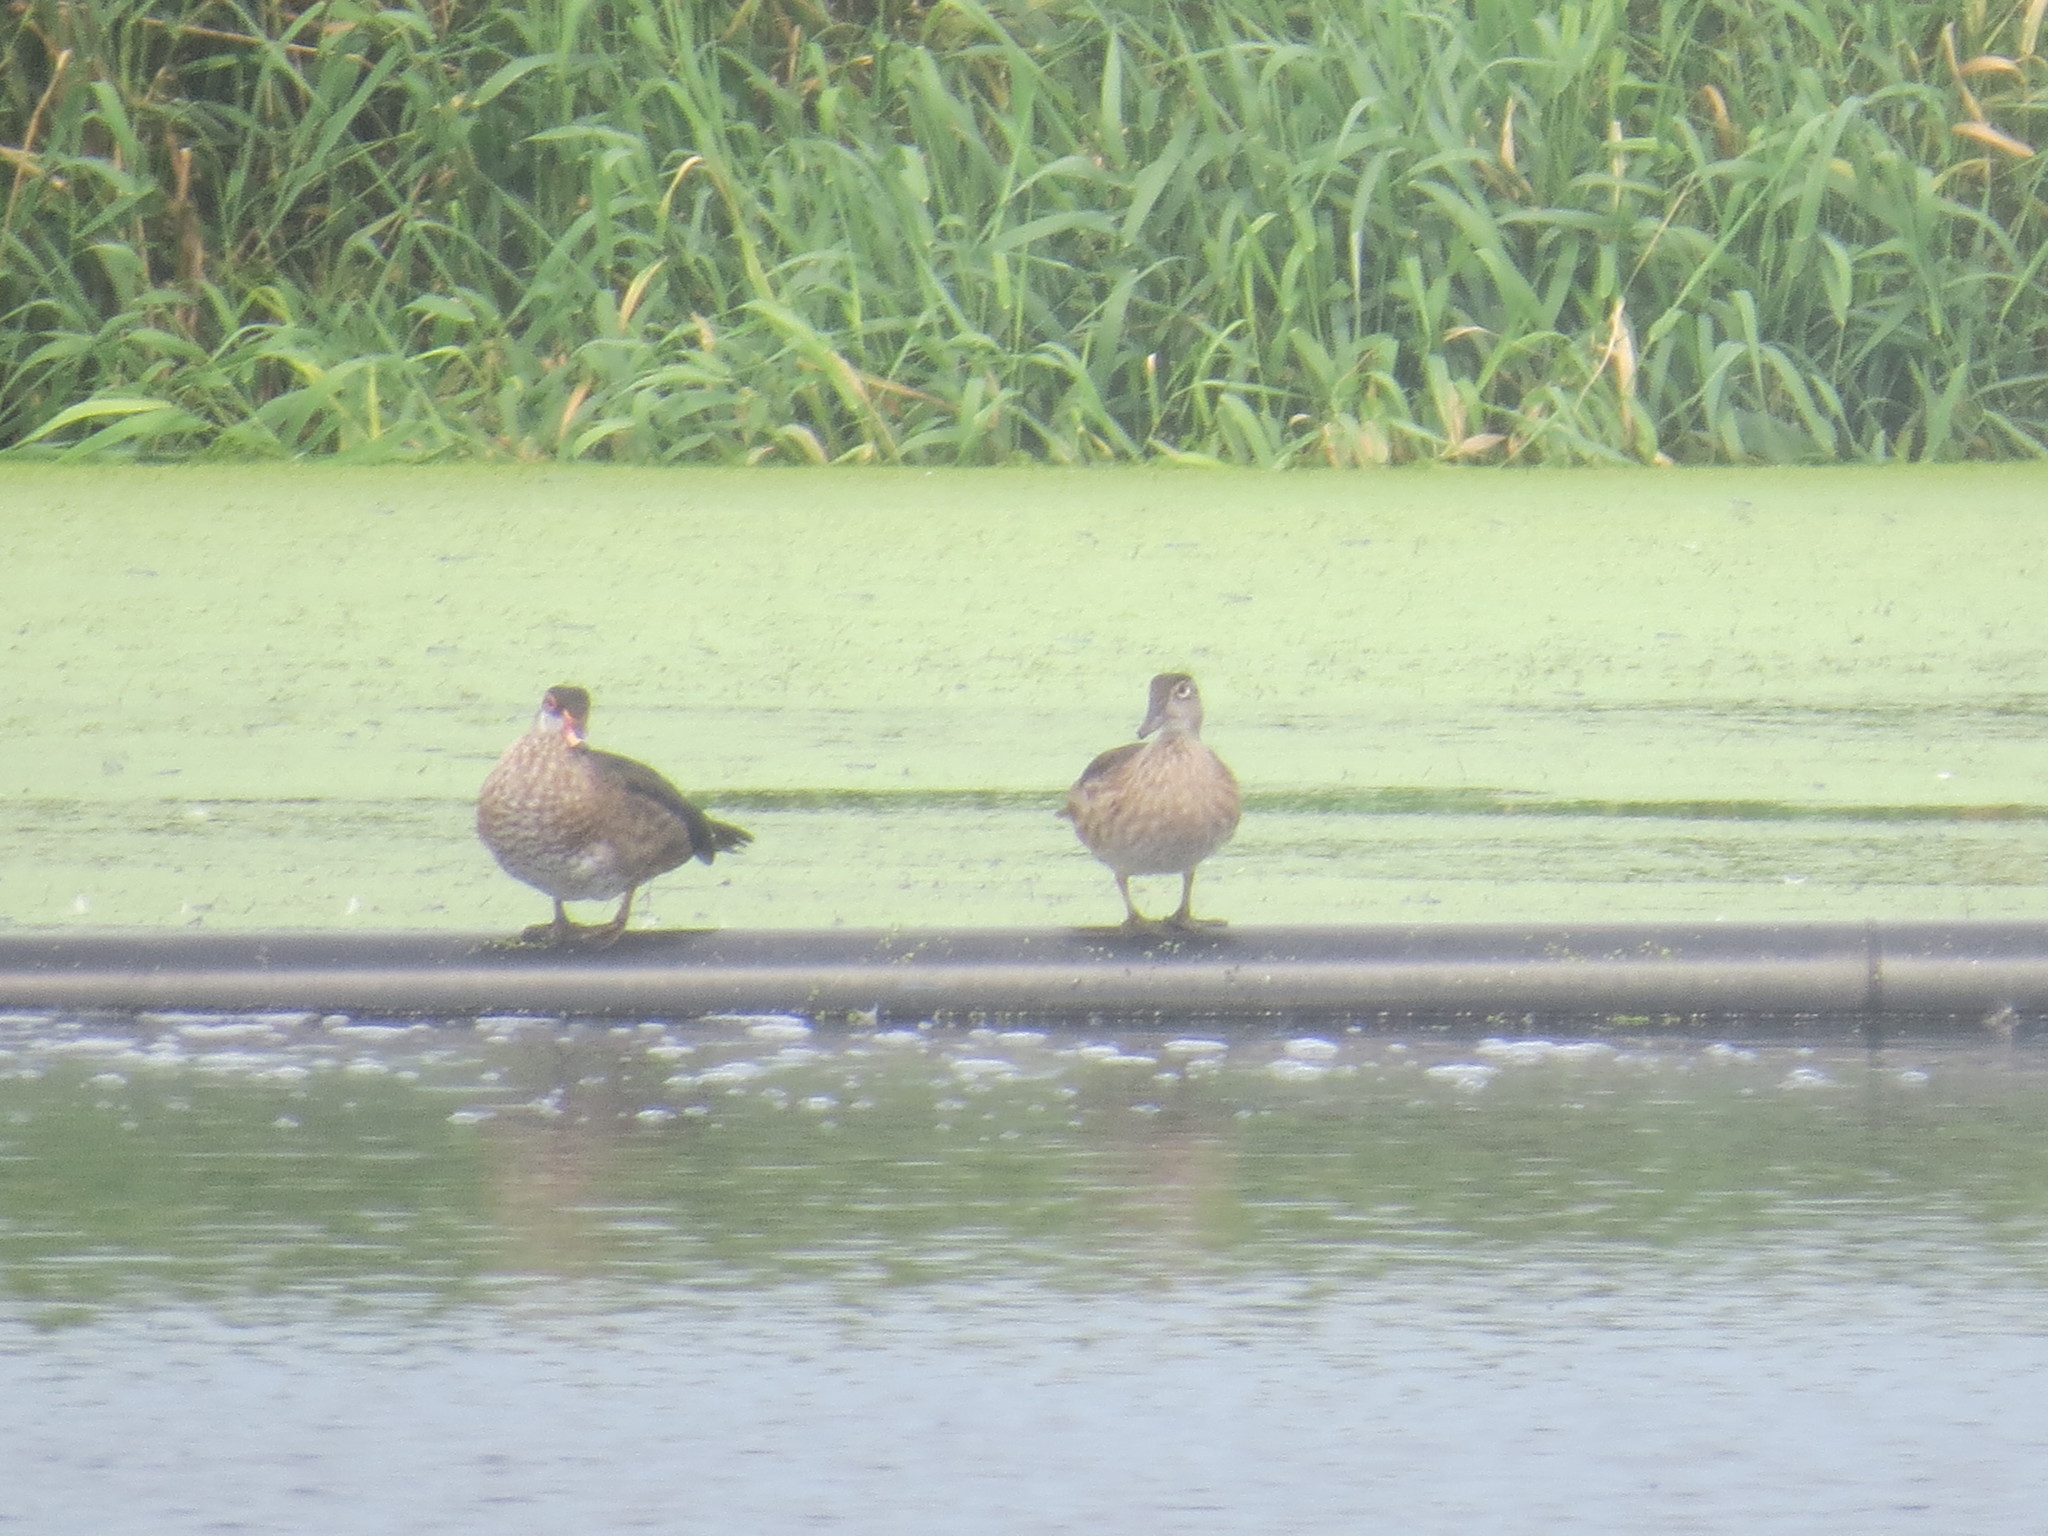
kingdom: Animalia
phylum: Chordata
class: Aves
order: Anseriformes
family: Anatidae
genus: Aix
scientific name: Aix sponsa
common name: Wood duck
